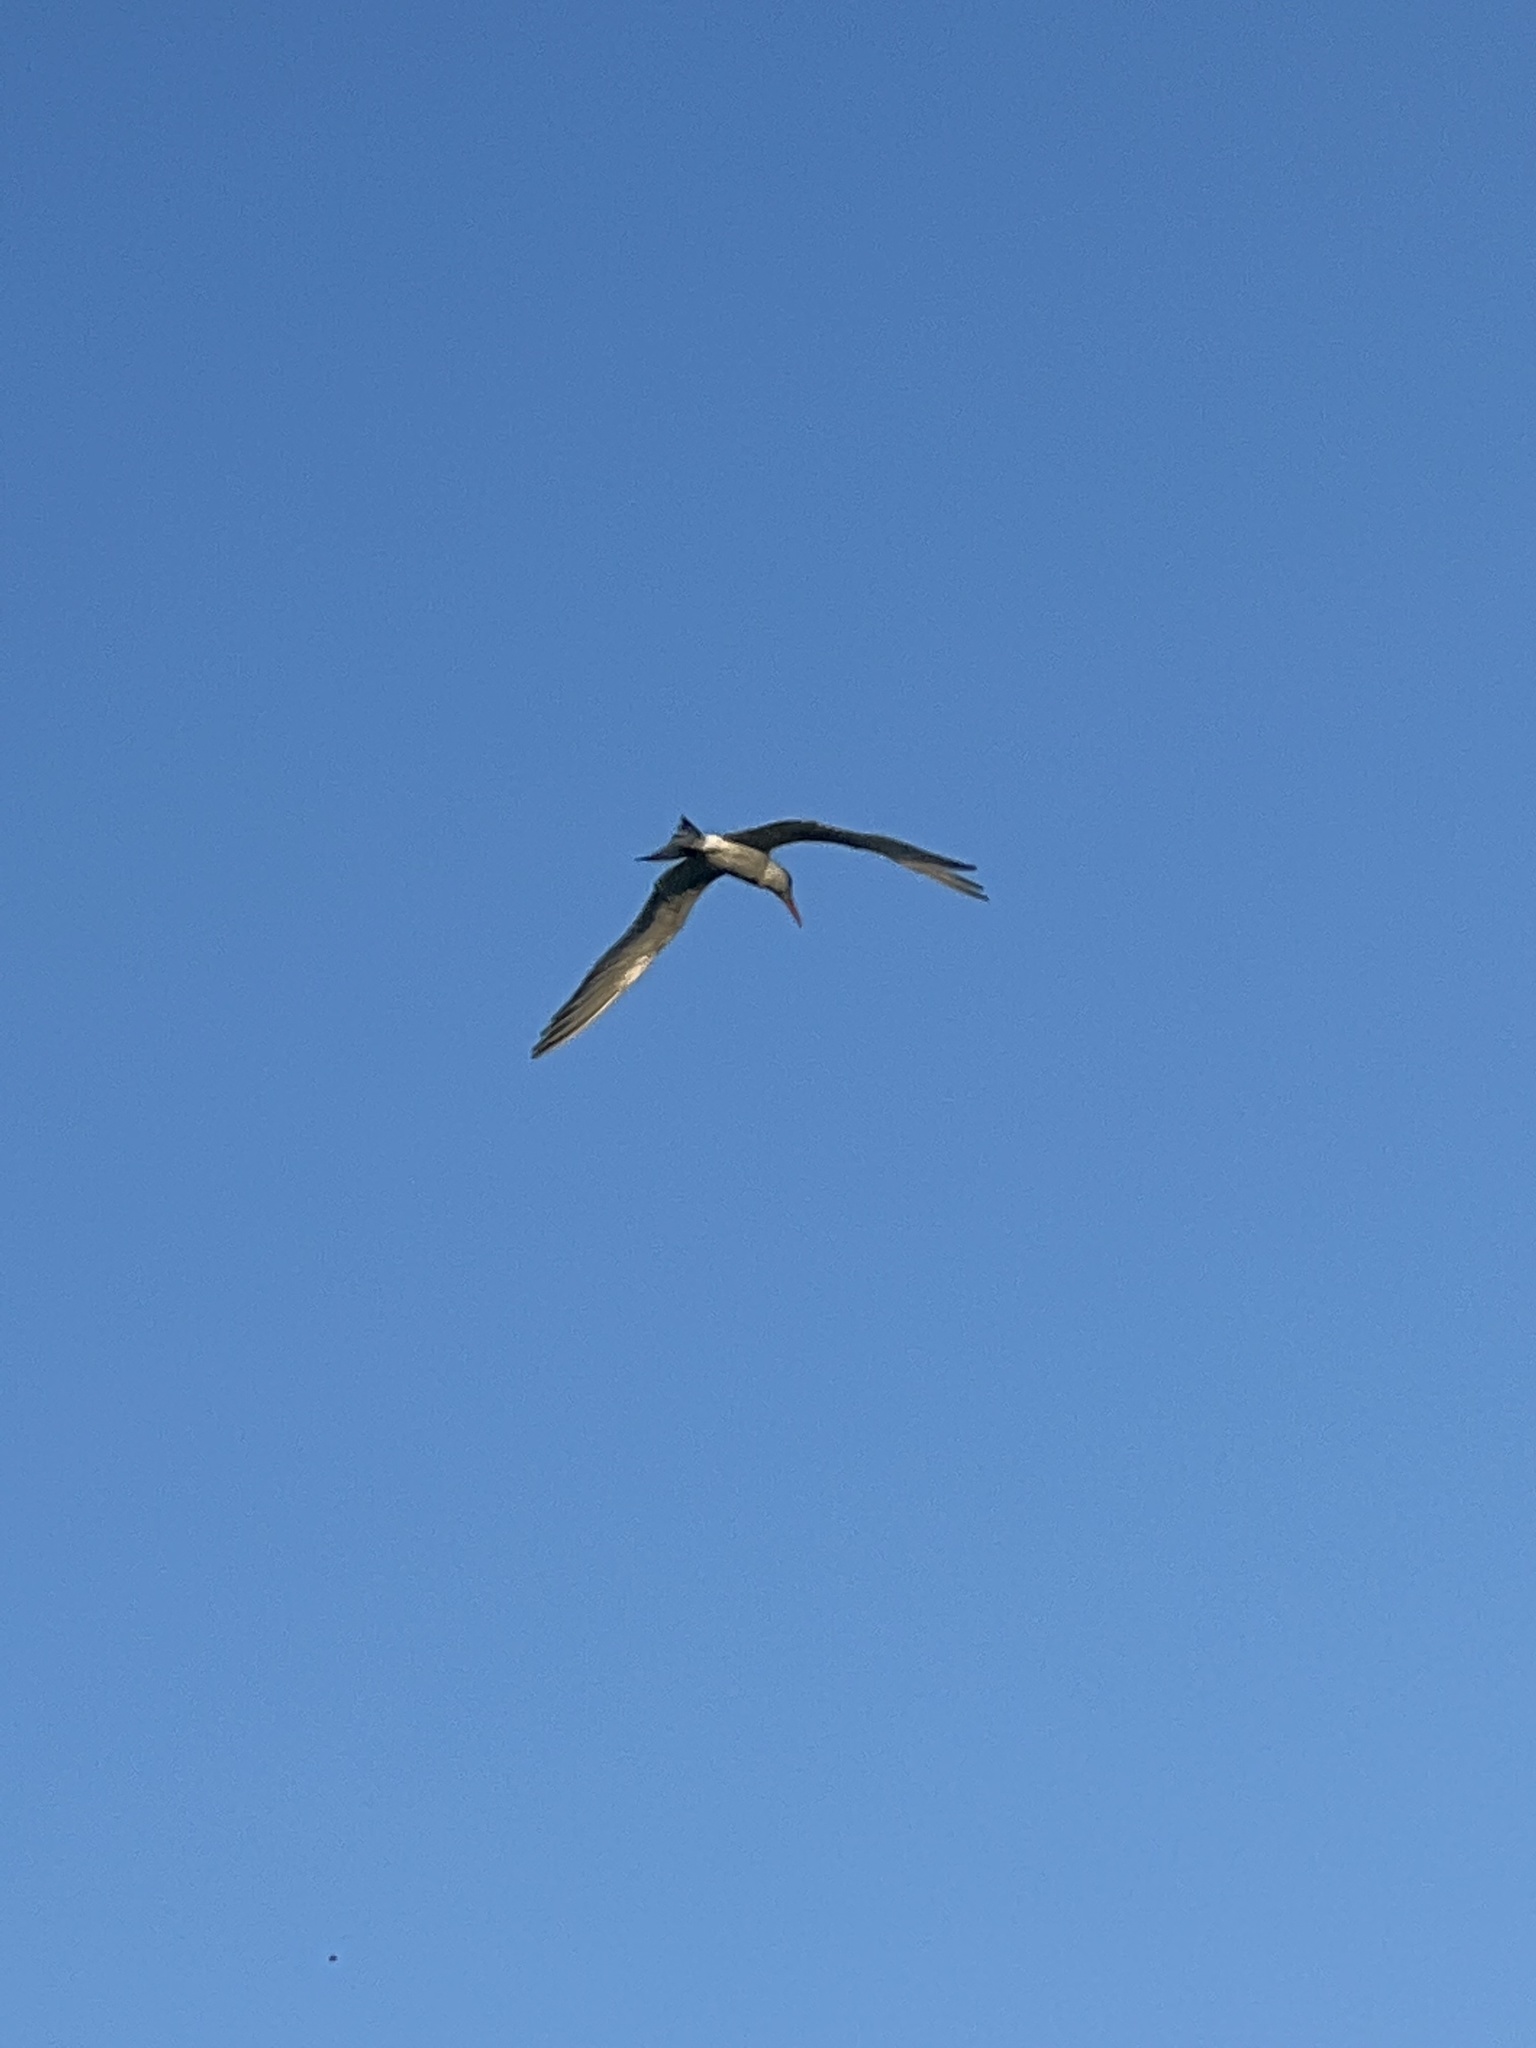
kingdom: Animalia
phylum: Chordata
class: Aves
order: Charadriiformes
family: Laridae
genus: Thalasseus
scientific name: Thalasseus maximus
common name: Royal tern
